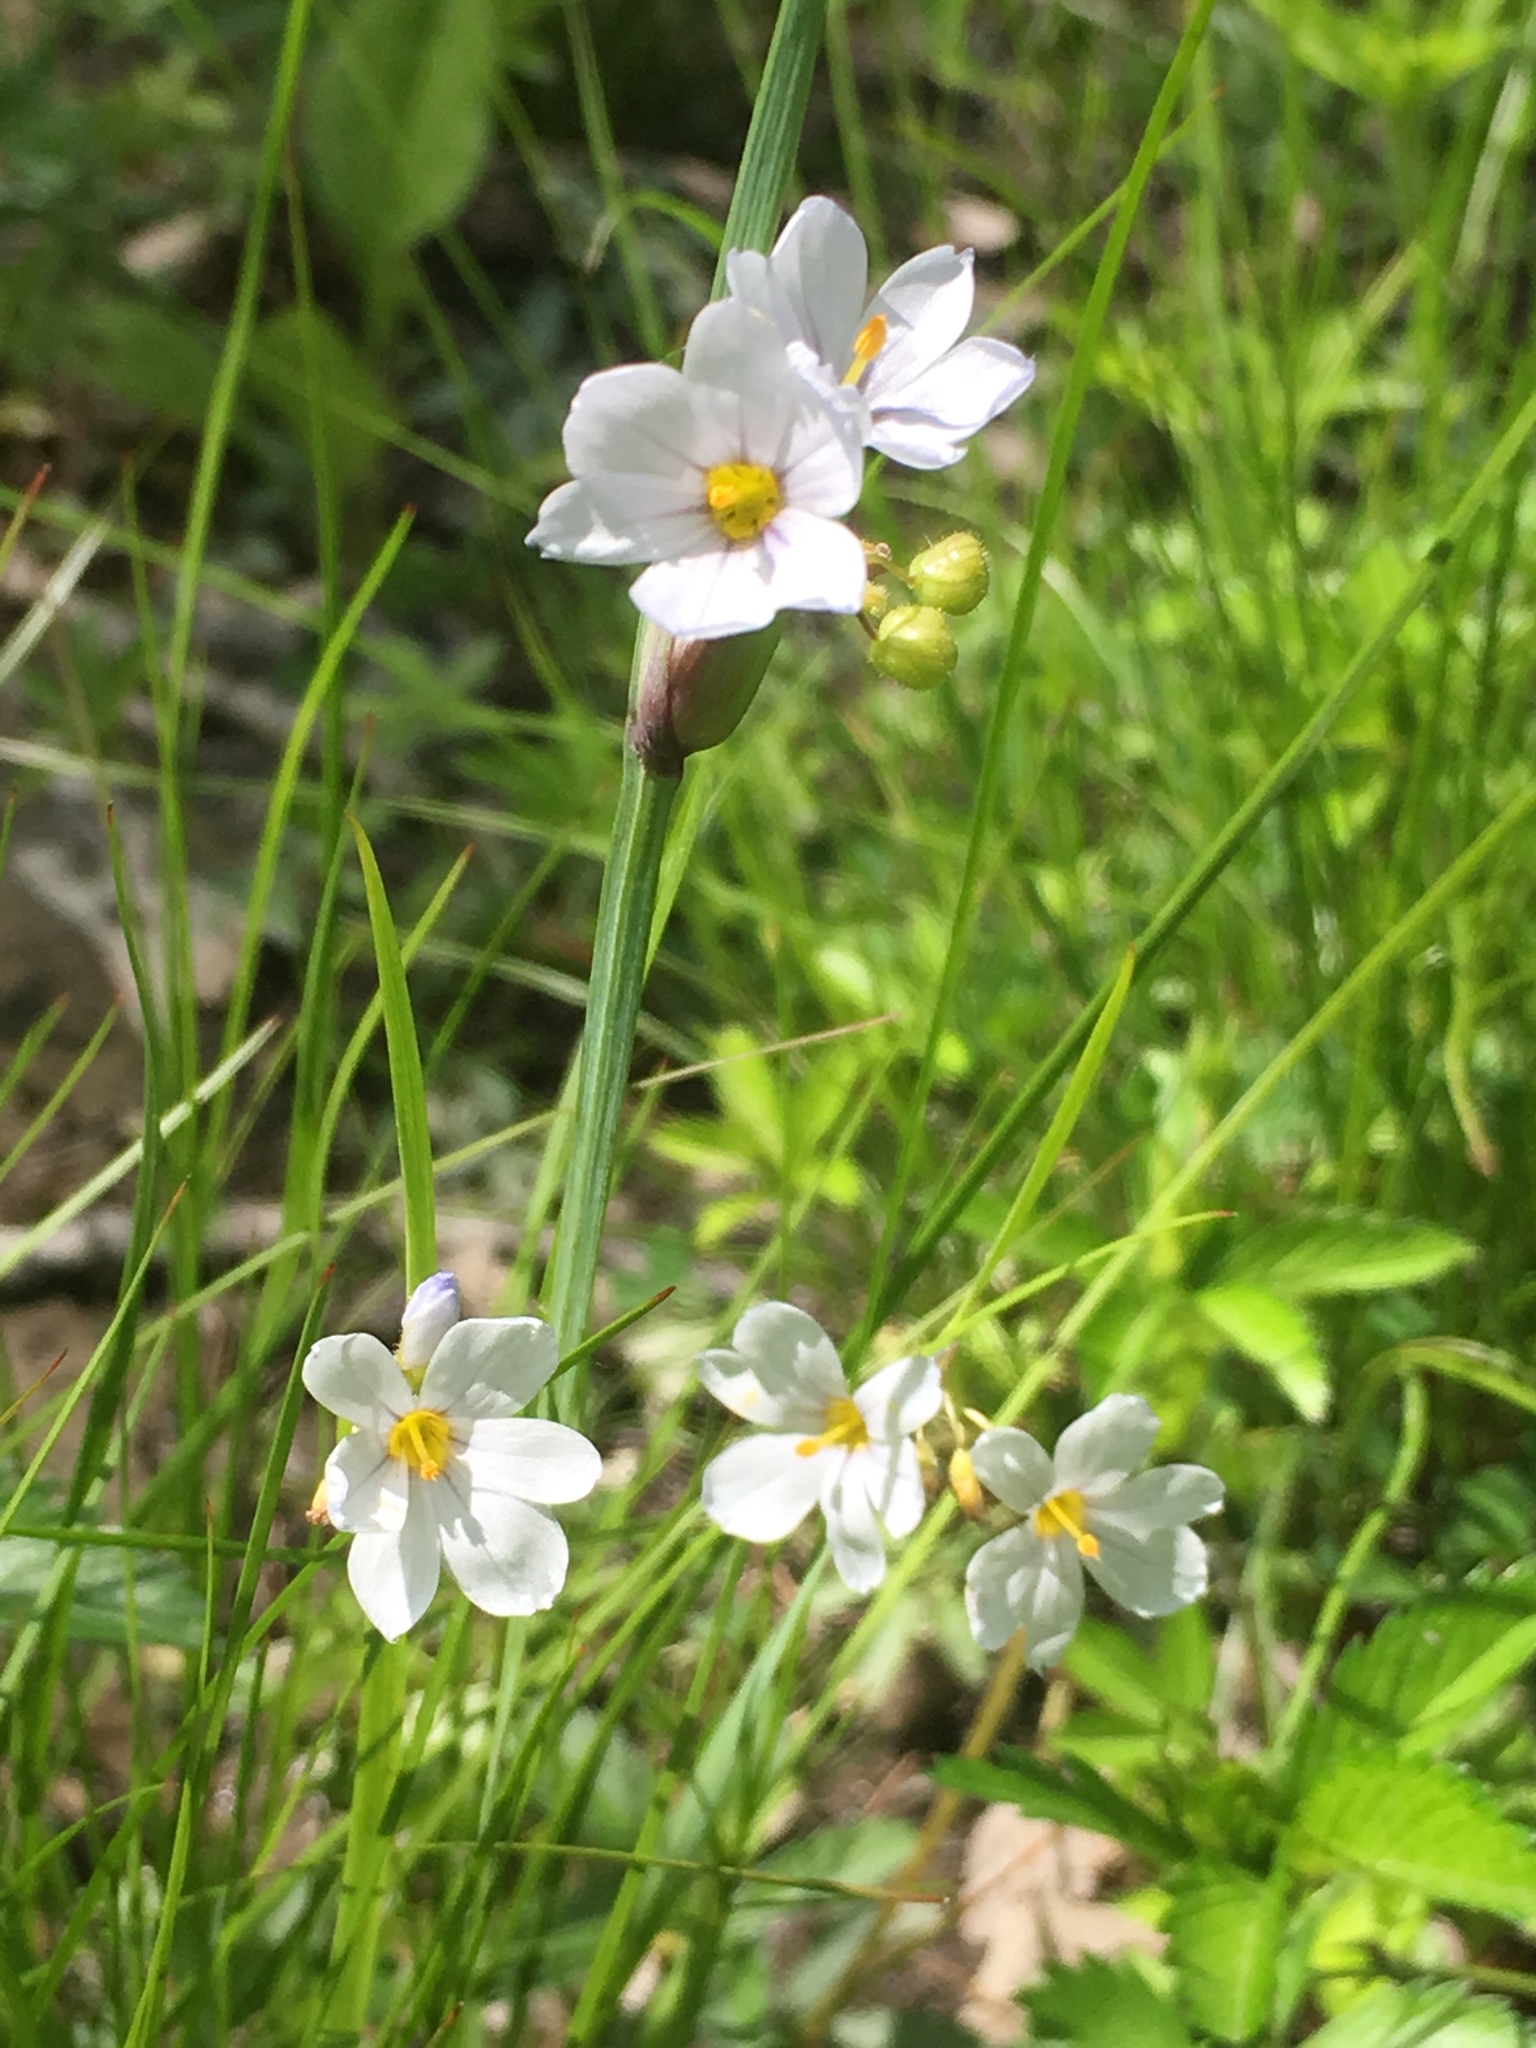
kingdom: Plantae
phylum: Tracheophyta
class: Liliopsida
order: Asparagales
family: Iridaceae
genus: Sisyrinchium
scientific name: Sisyrinchium albidum
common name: Pale blue-eyed-grass
